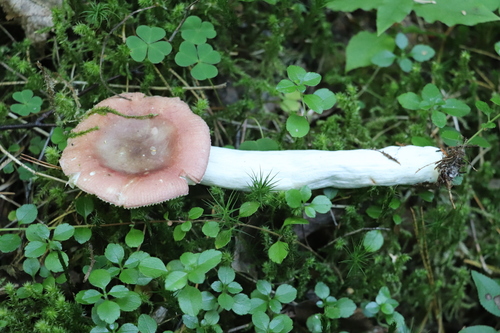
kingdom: Fungi
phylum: Basidiomycota
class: Agaricomycetes
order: Russulales
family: Russulaceae
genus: Russula
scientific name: Russula turci
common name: Pirate brittlegill
